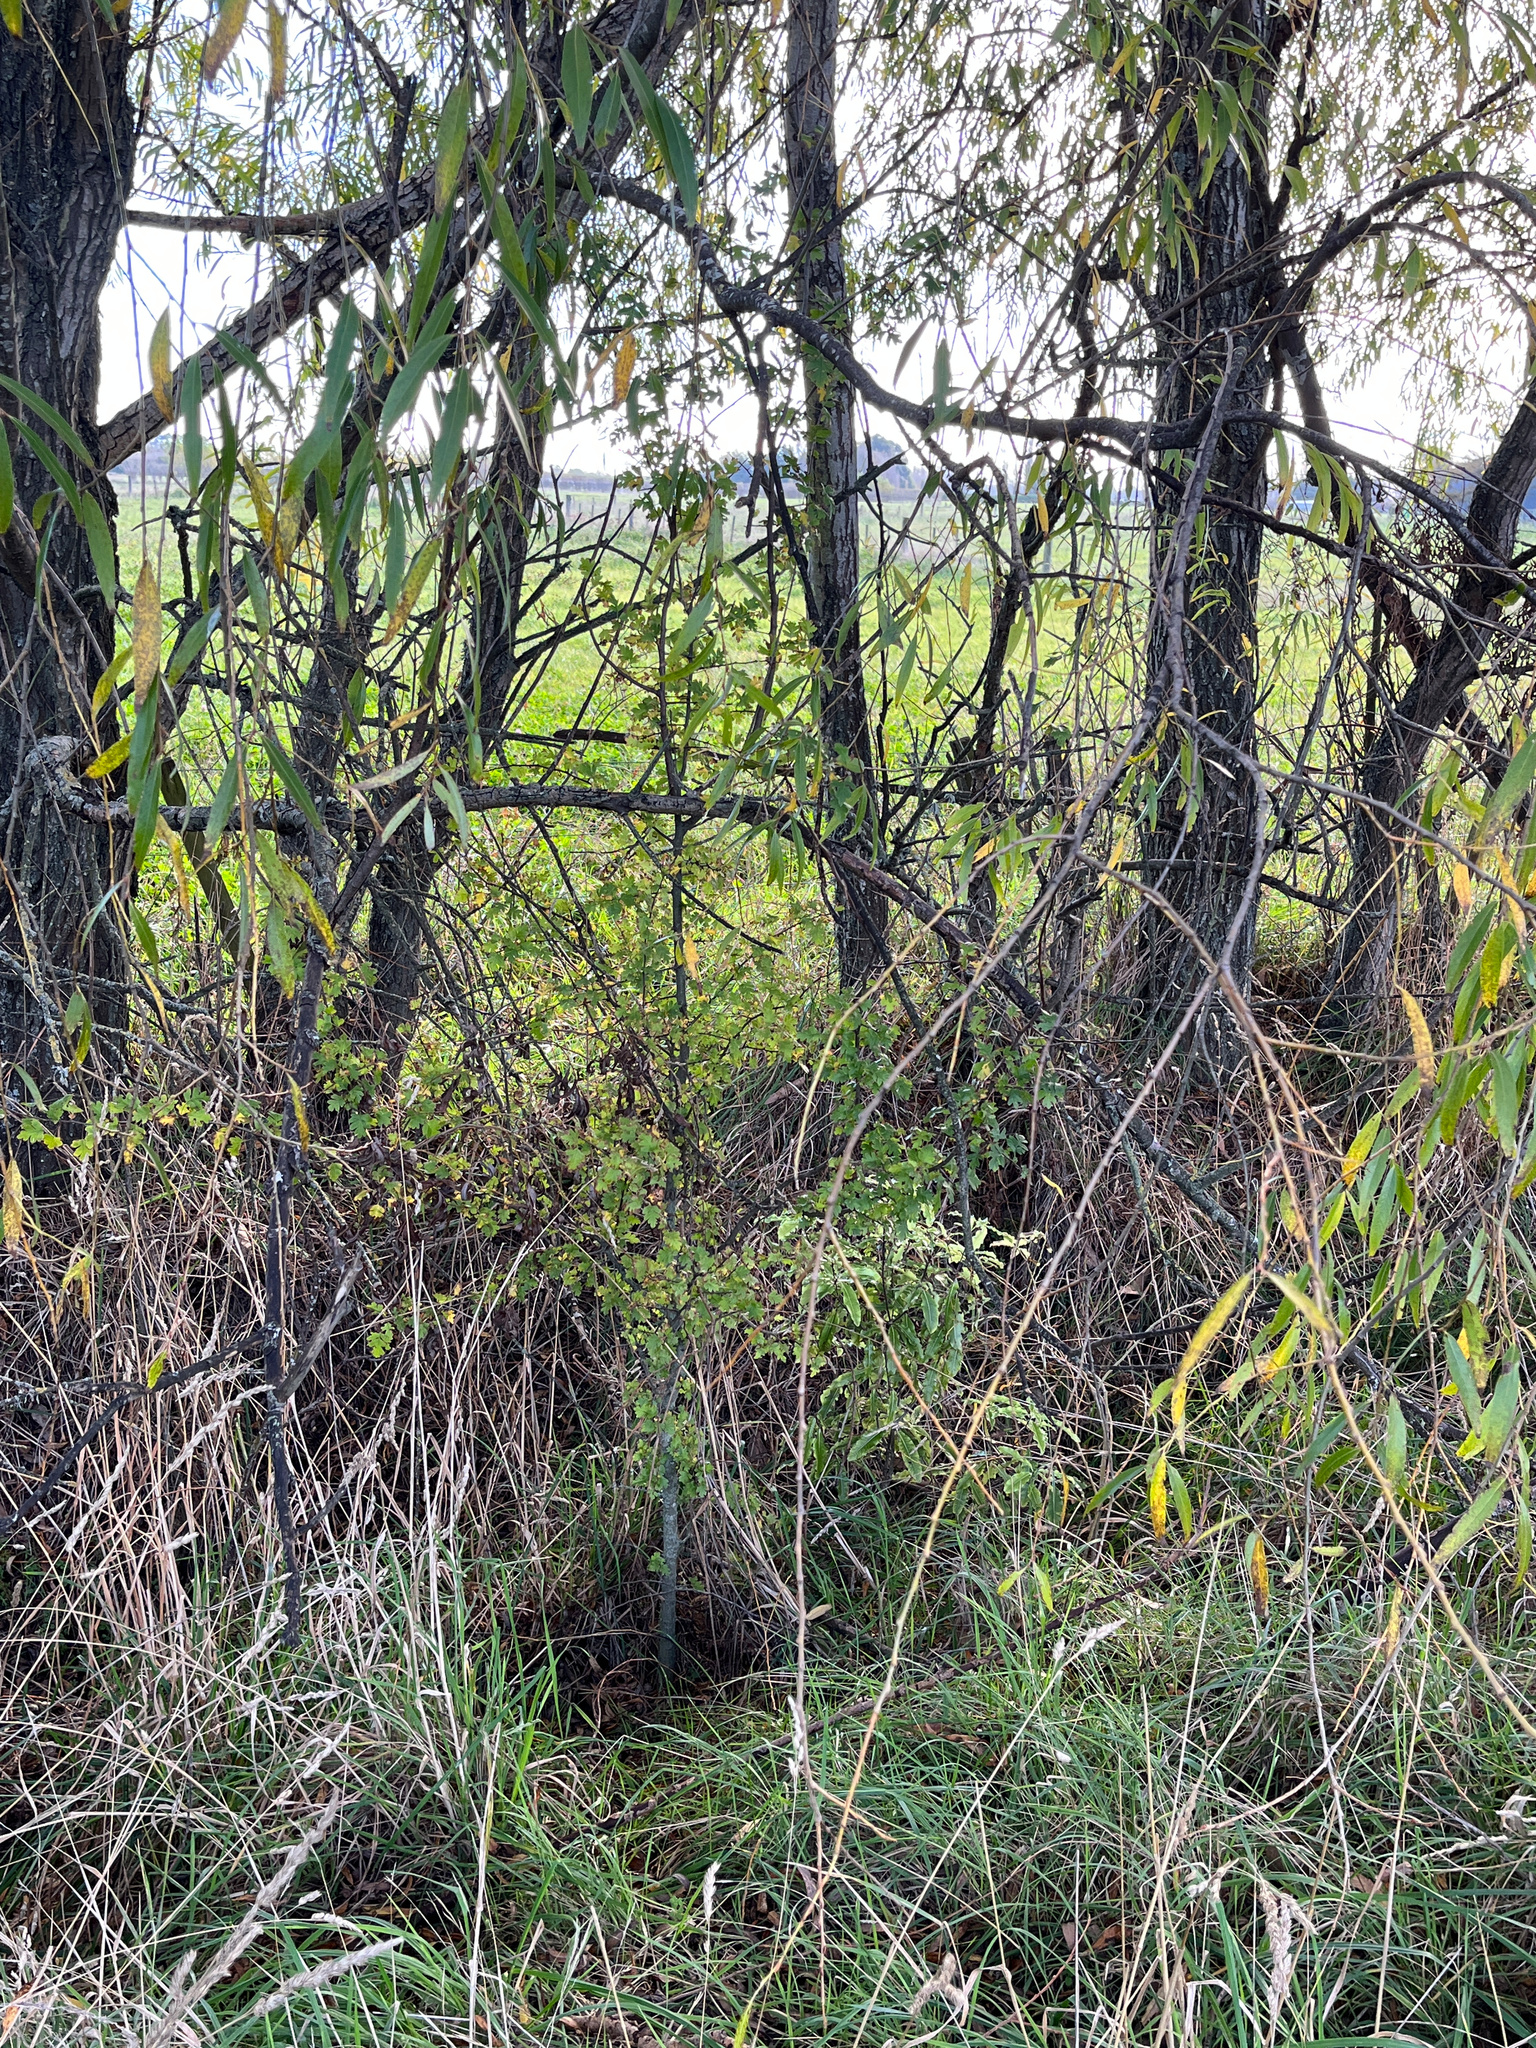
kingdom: Plantae
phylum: Tracheophyta
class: Magnoliopsida
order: Rosales
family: Rosaceae
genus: Crataegus
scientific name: Crataegus monogyna
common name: Hawthorn
